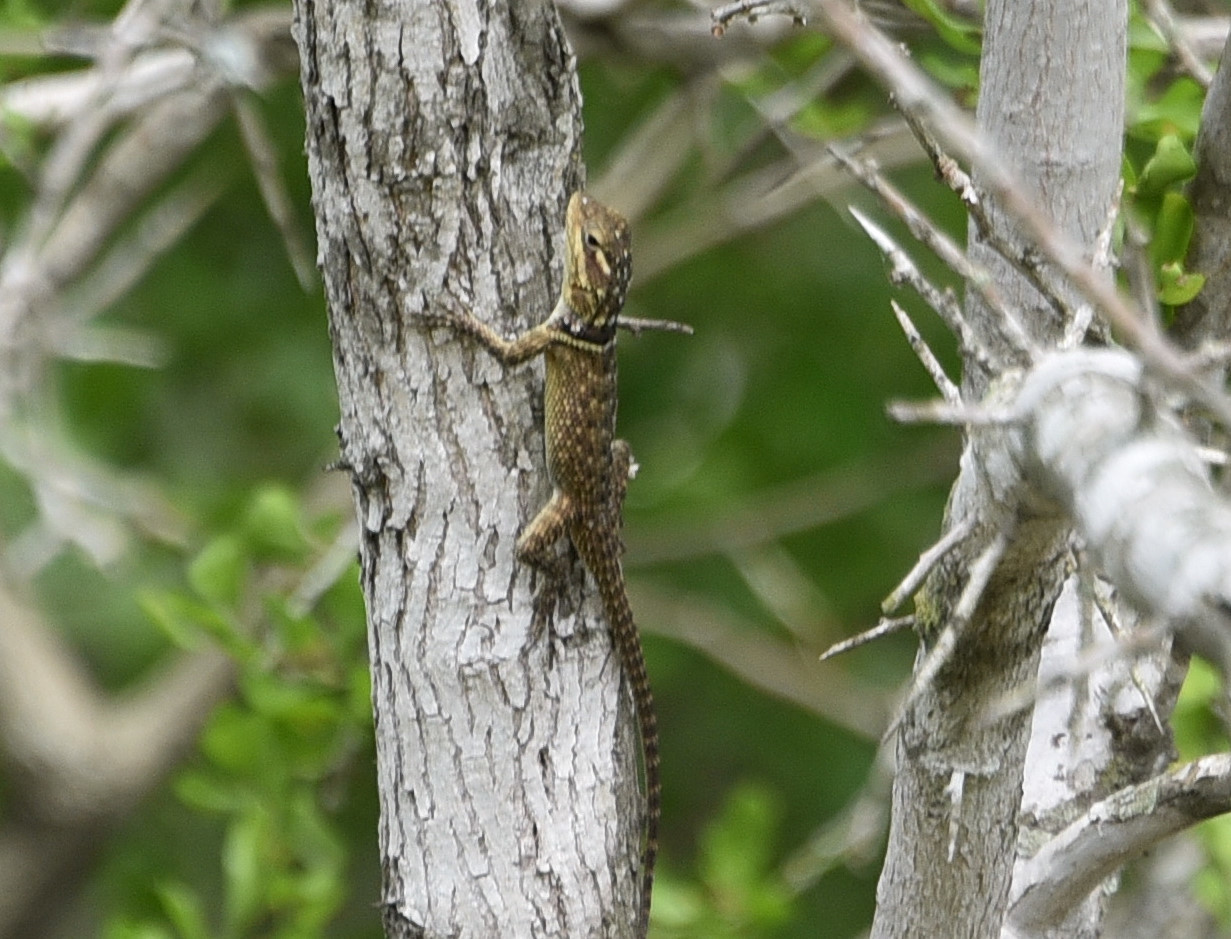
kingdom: Animalia
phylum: Chordata
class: Squamata
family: Phrynosomatidae
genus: Sceloporus
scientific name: Sceloporus cyanogenys
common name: Blue spiny lizard
